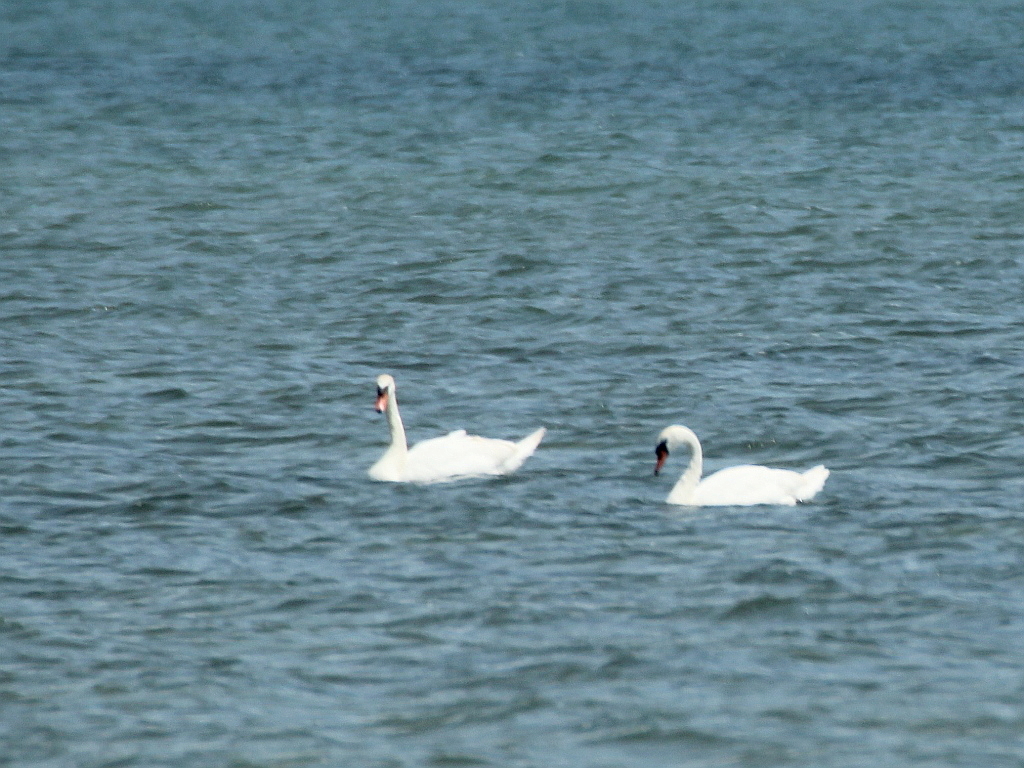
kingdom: Animalia
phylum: Chordata
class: Aves
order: Anseriformes
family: Anatidae
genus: Cygnus
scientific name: Cygnus olor
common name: Mute swan
